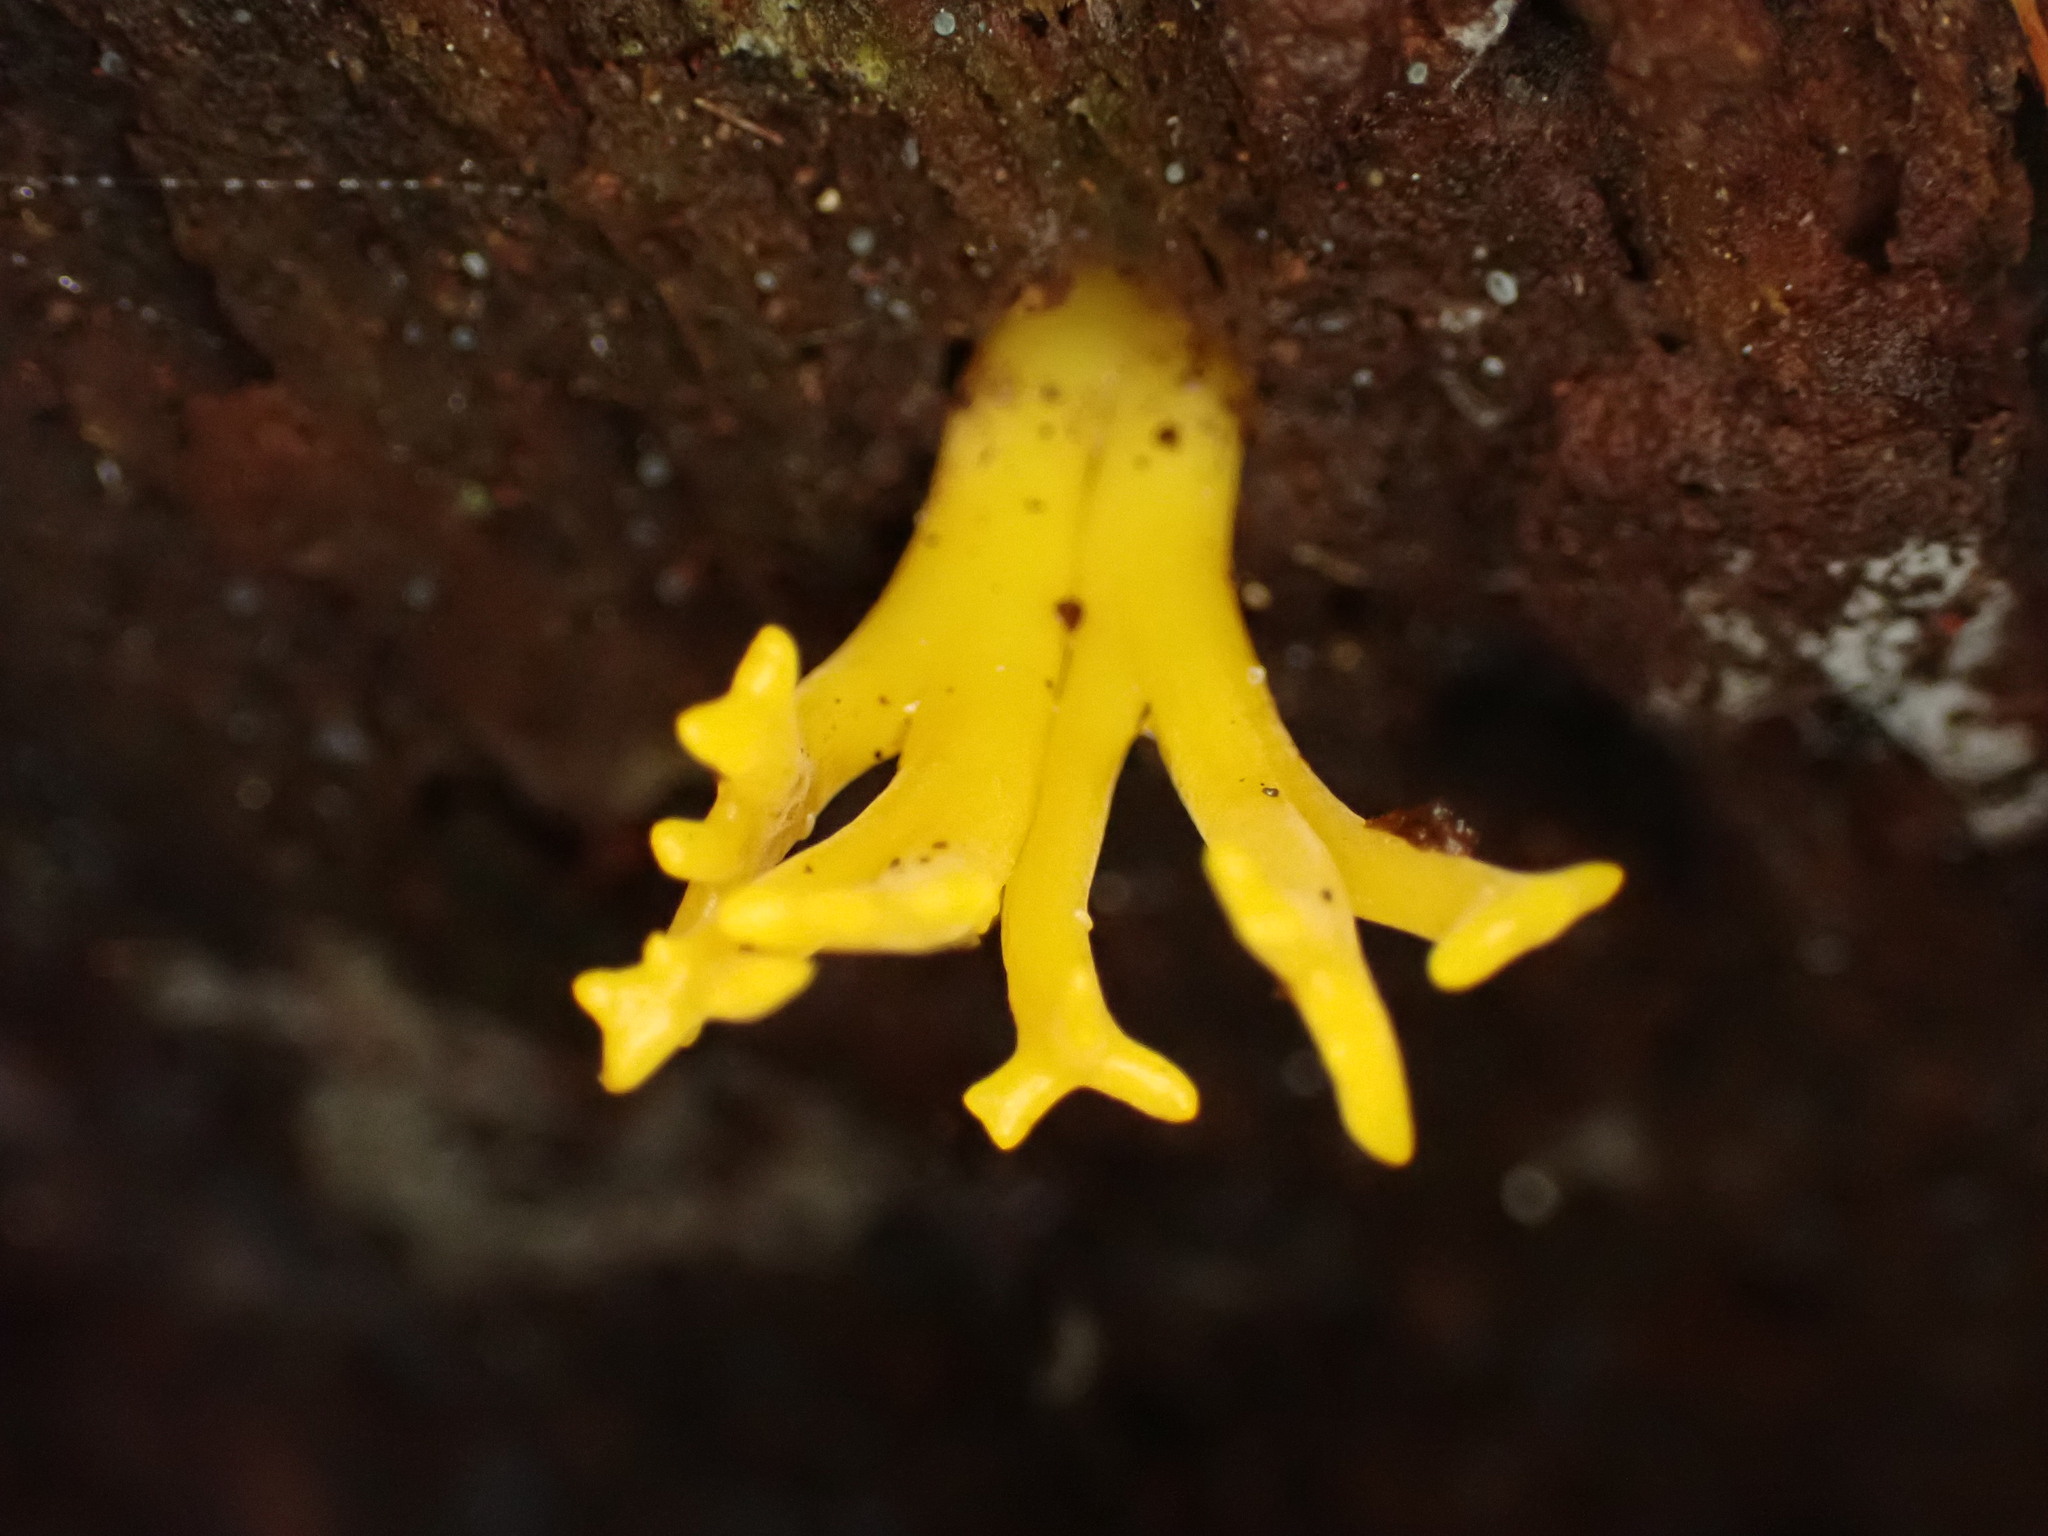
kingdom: Fungi
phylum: Basidiomycota
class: Dacrymycetes
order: Dacrymycetales
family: Dacrymycetaceae
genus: Calocera
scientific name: Calocera viscosa
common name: Yellow stagshorn
